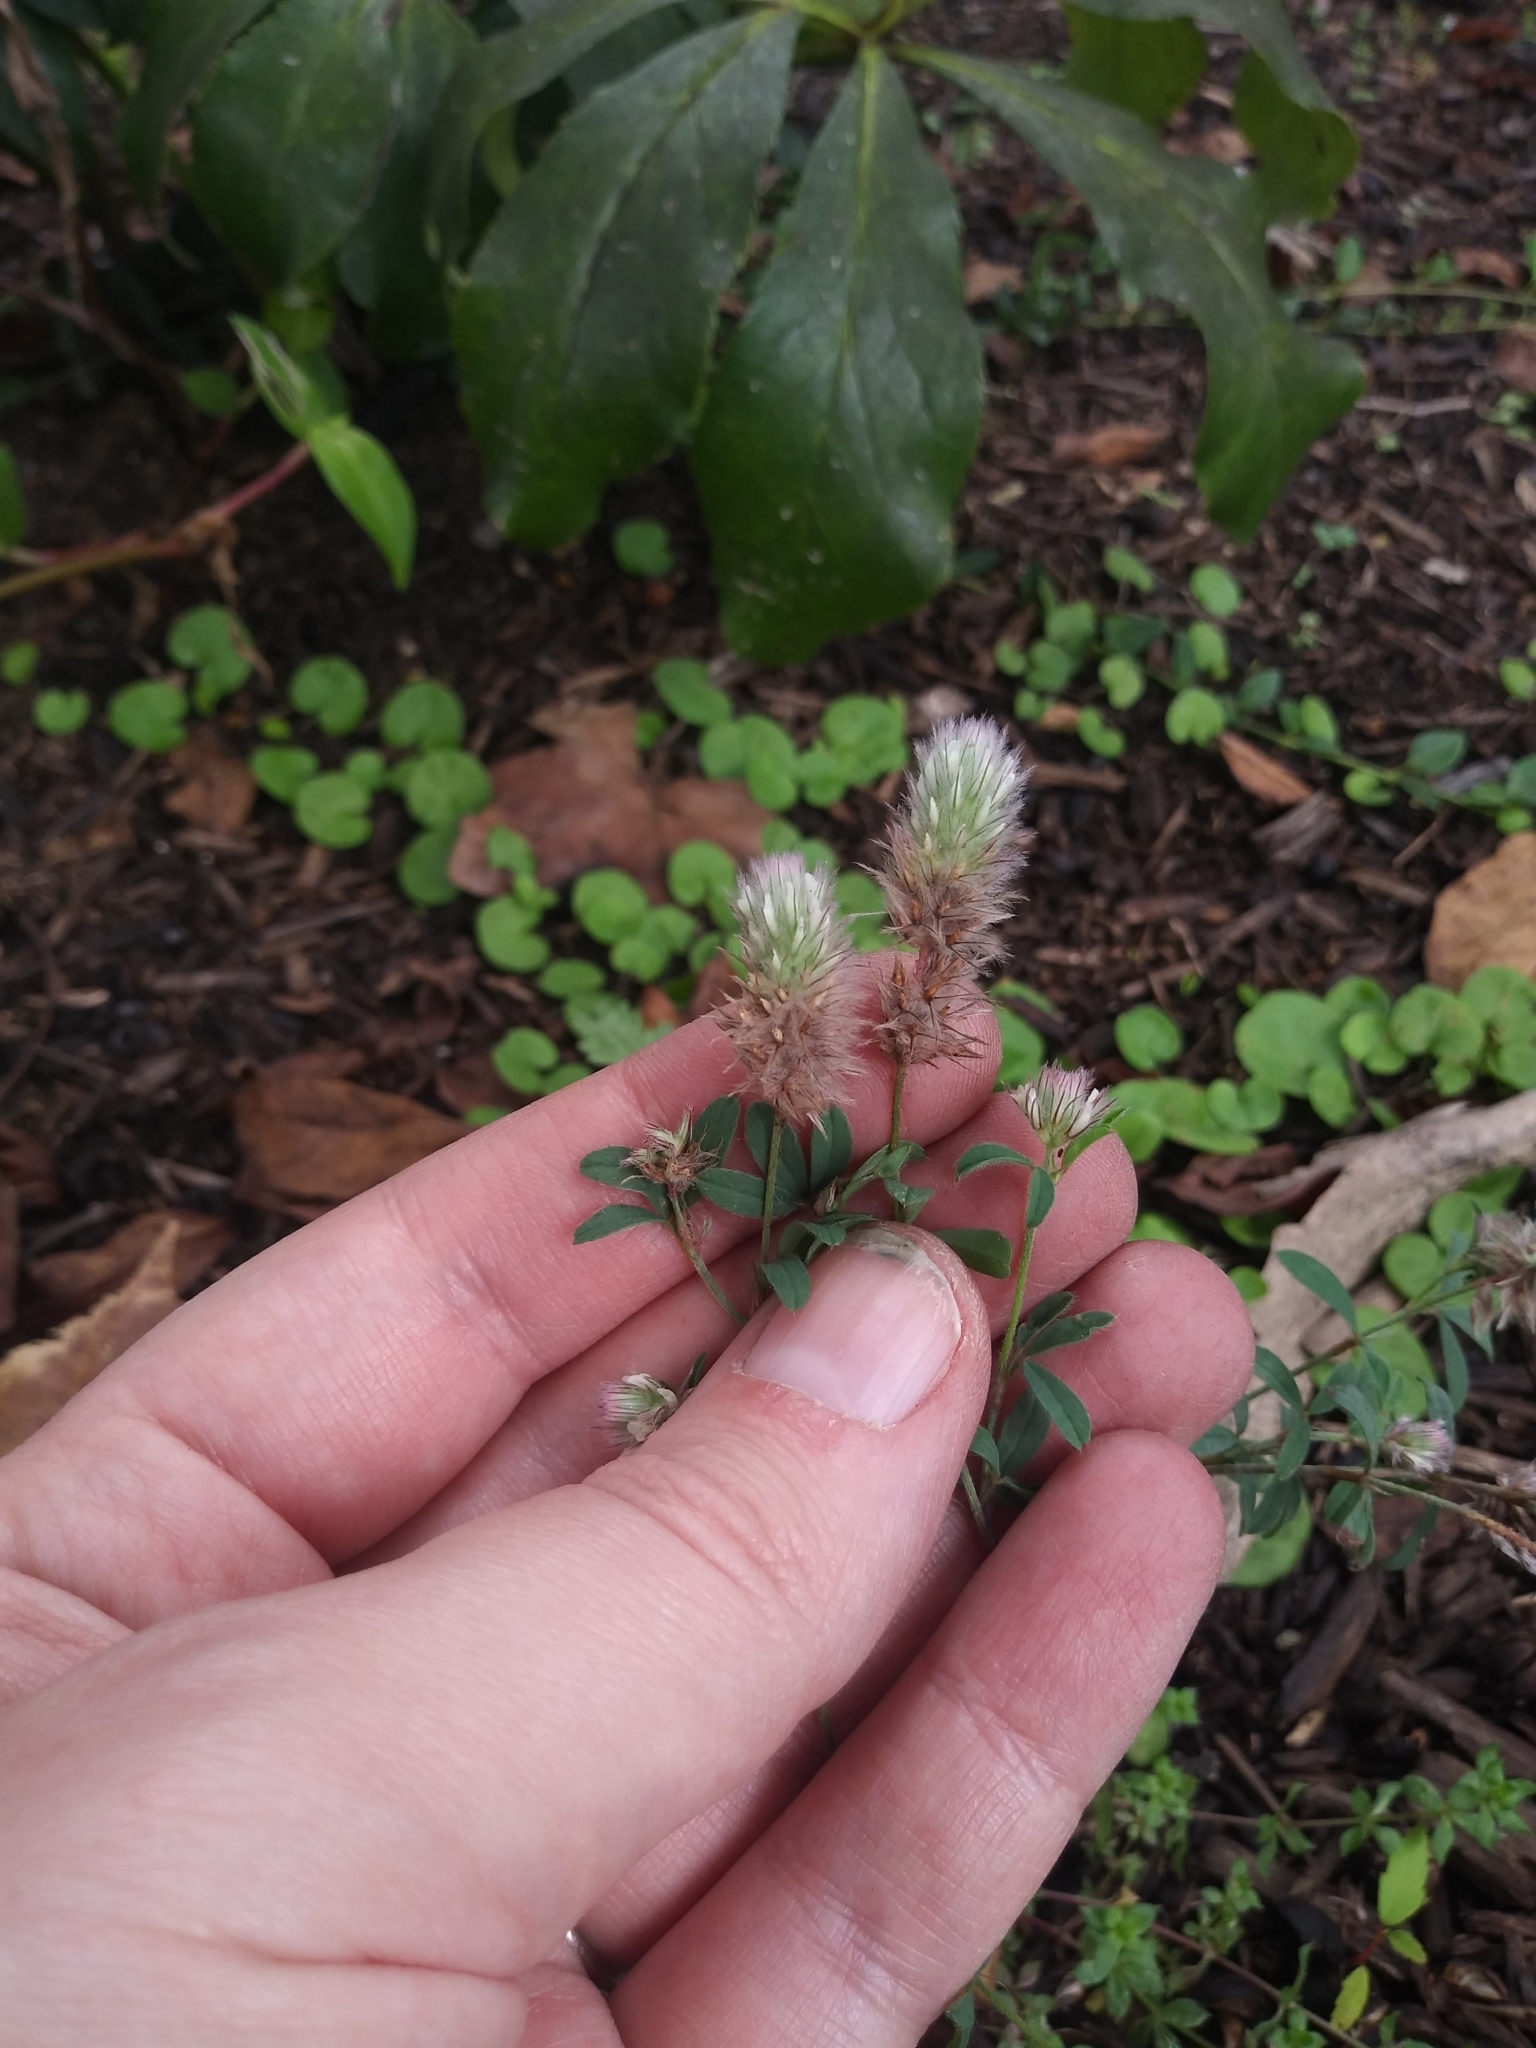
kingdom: Plantae
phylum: Tracheophyta
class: Magnoliopsida
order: Fabales
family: Fabaceae
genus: Trifolium
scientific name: Trifolium arvense
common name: Hare's-foot clover
